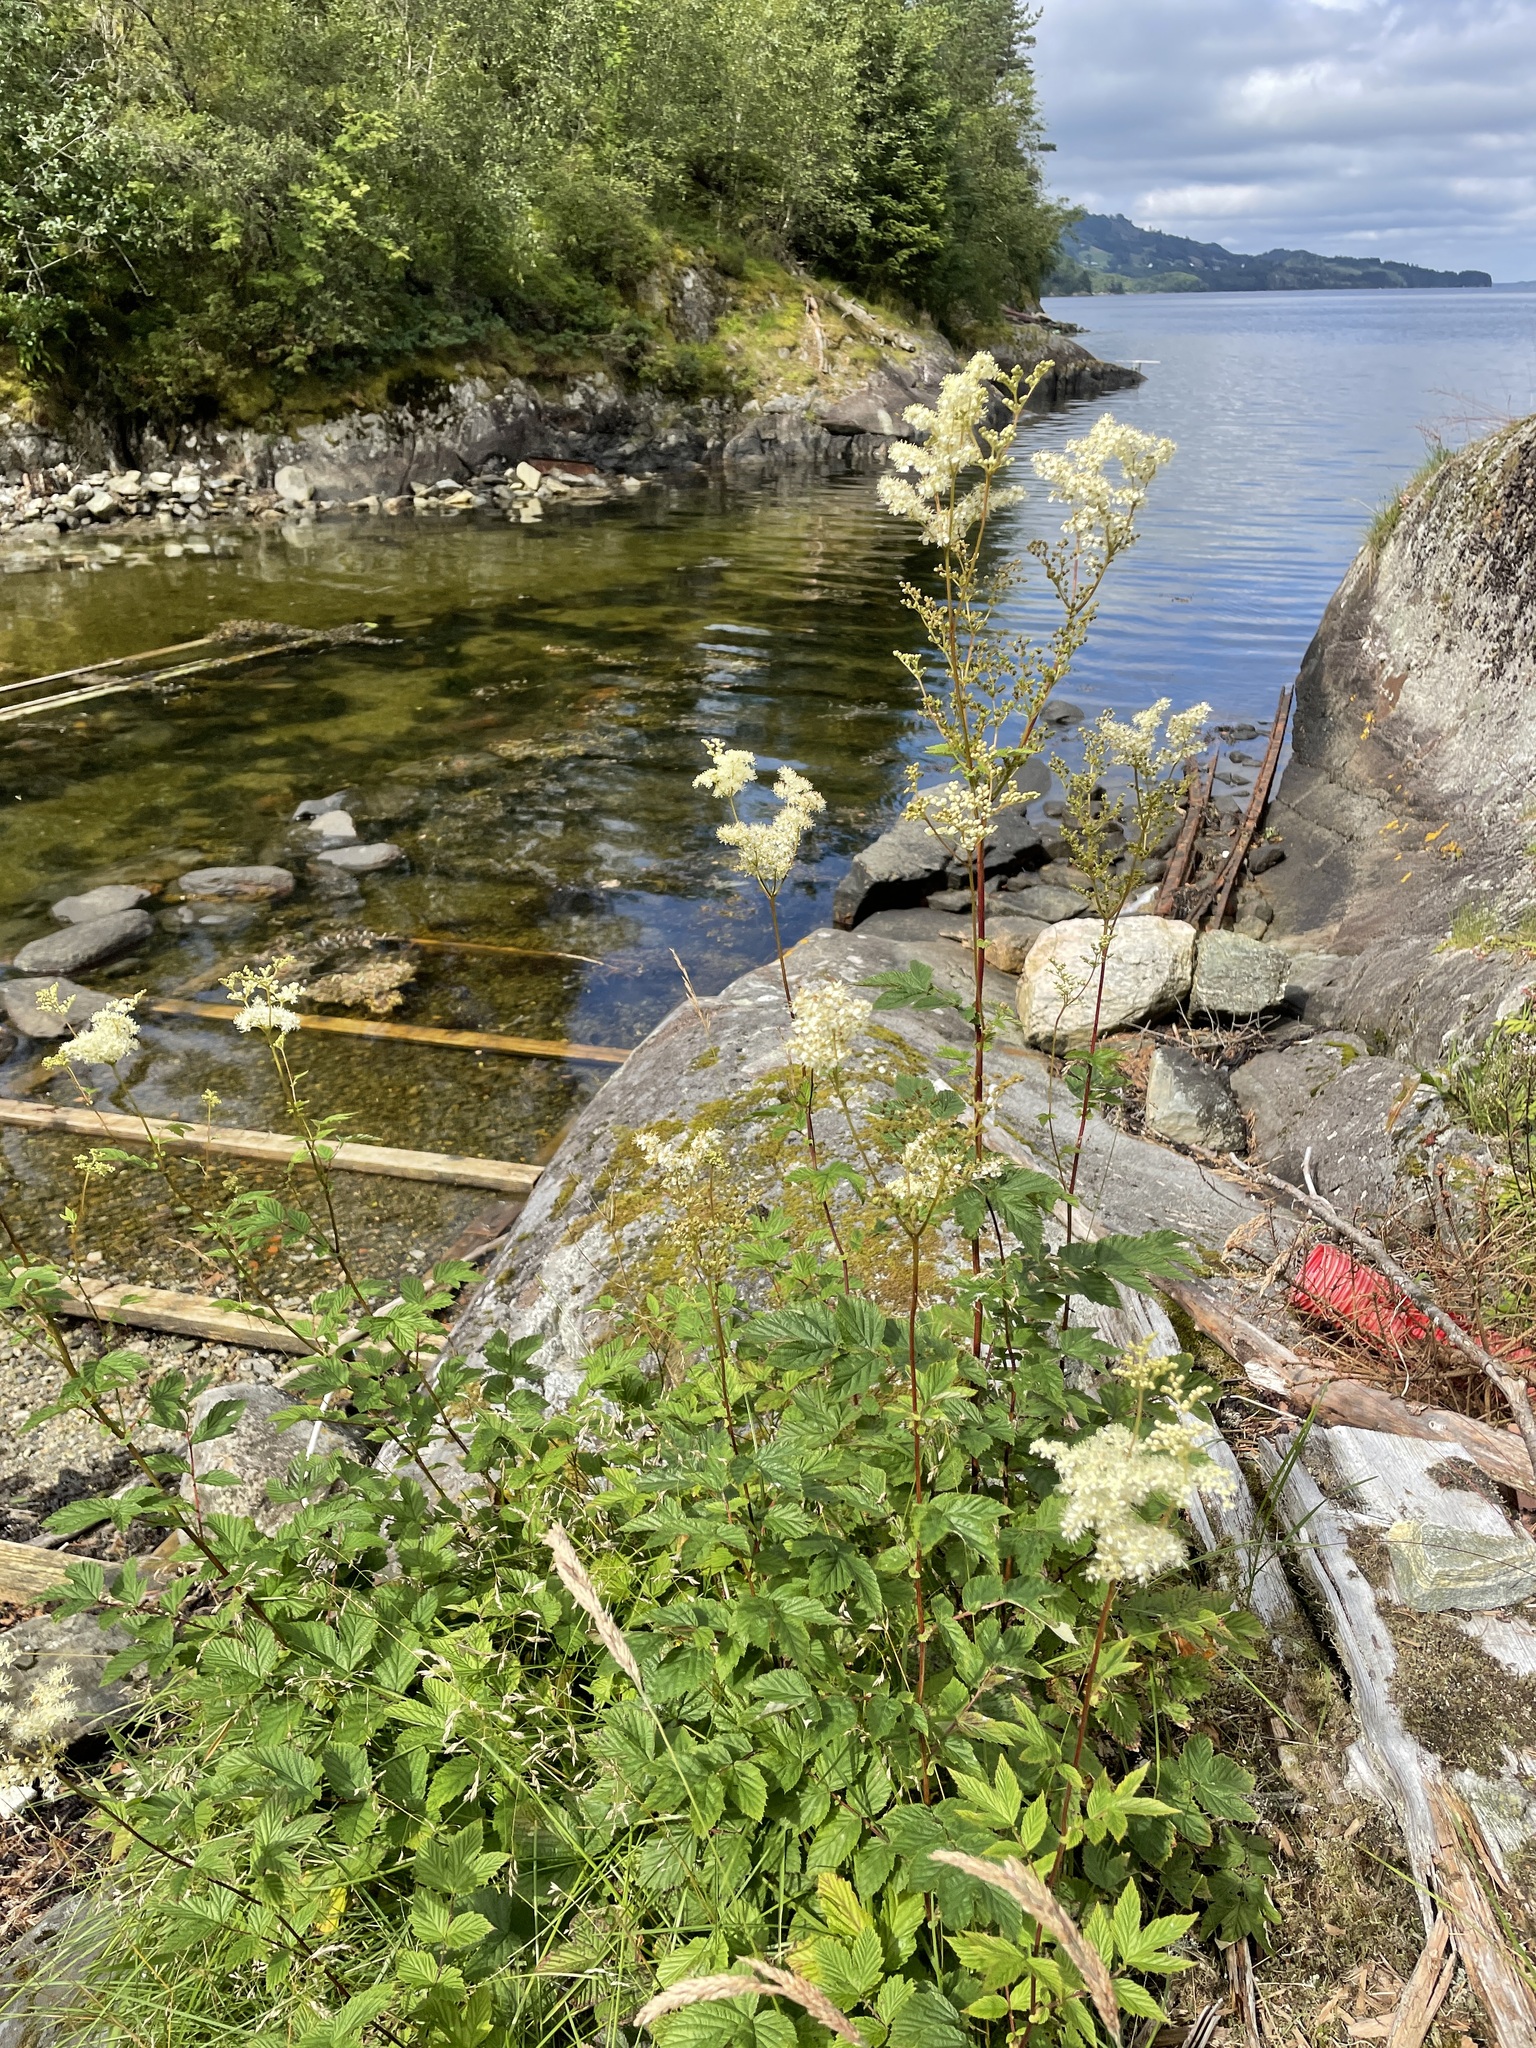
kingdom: Plantae
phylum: Tracheophyta
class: Magnoliopsida
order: Rosales
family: Rosaceae
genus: Filipendula
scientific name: Filipendula ulmaria
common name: Meadowsweet
